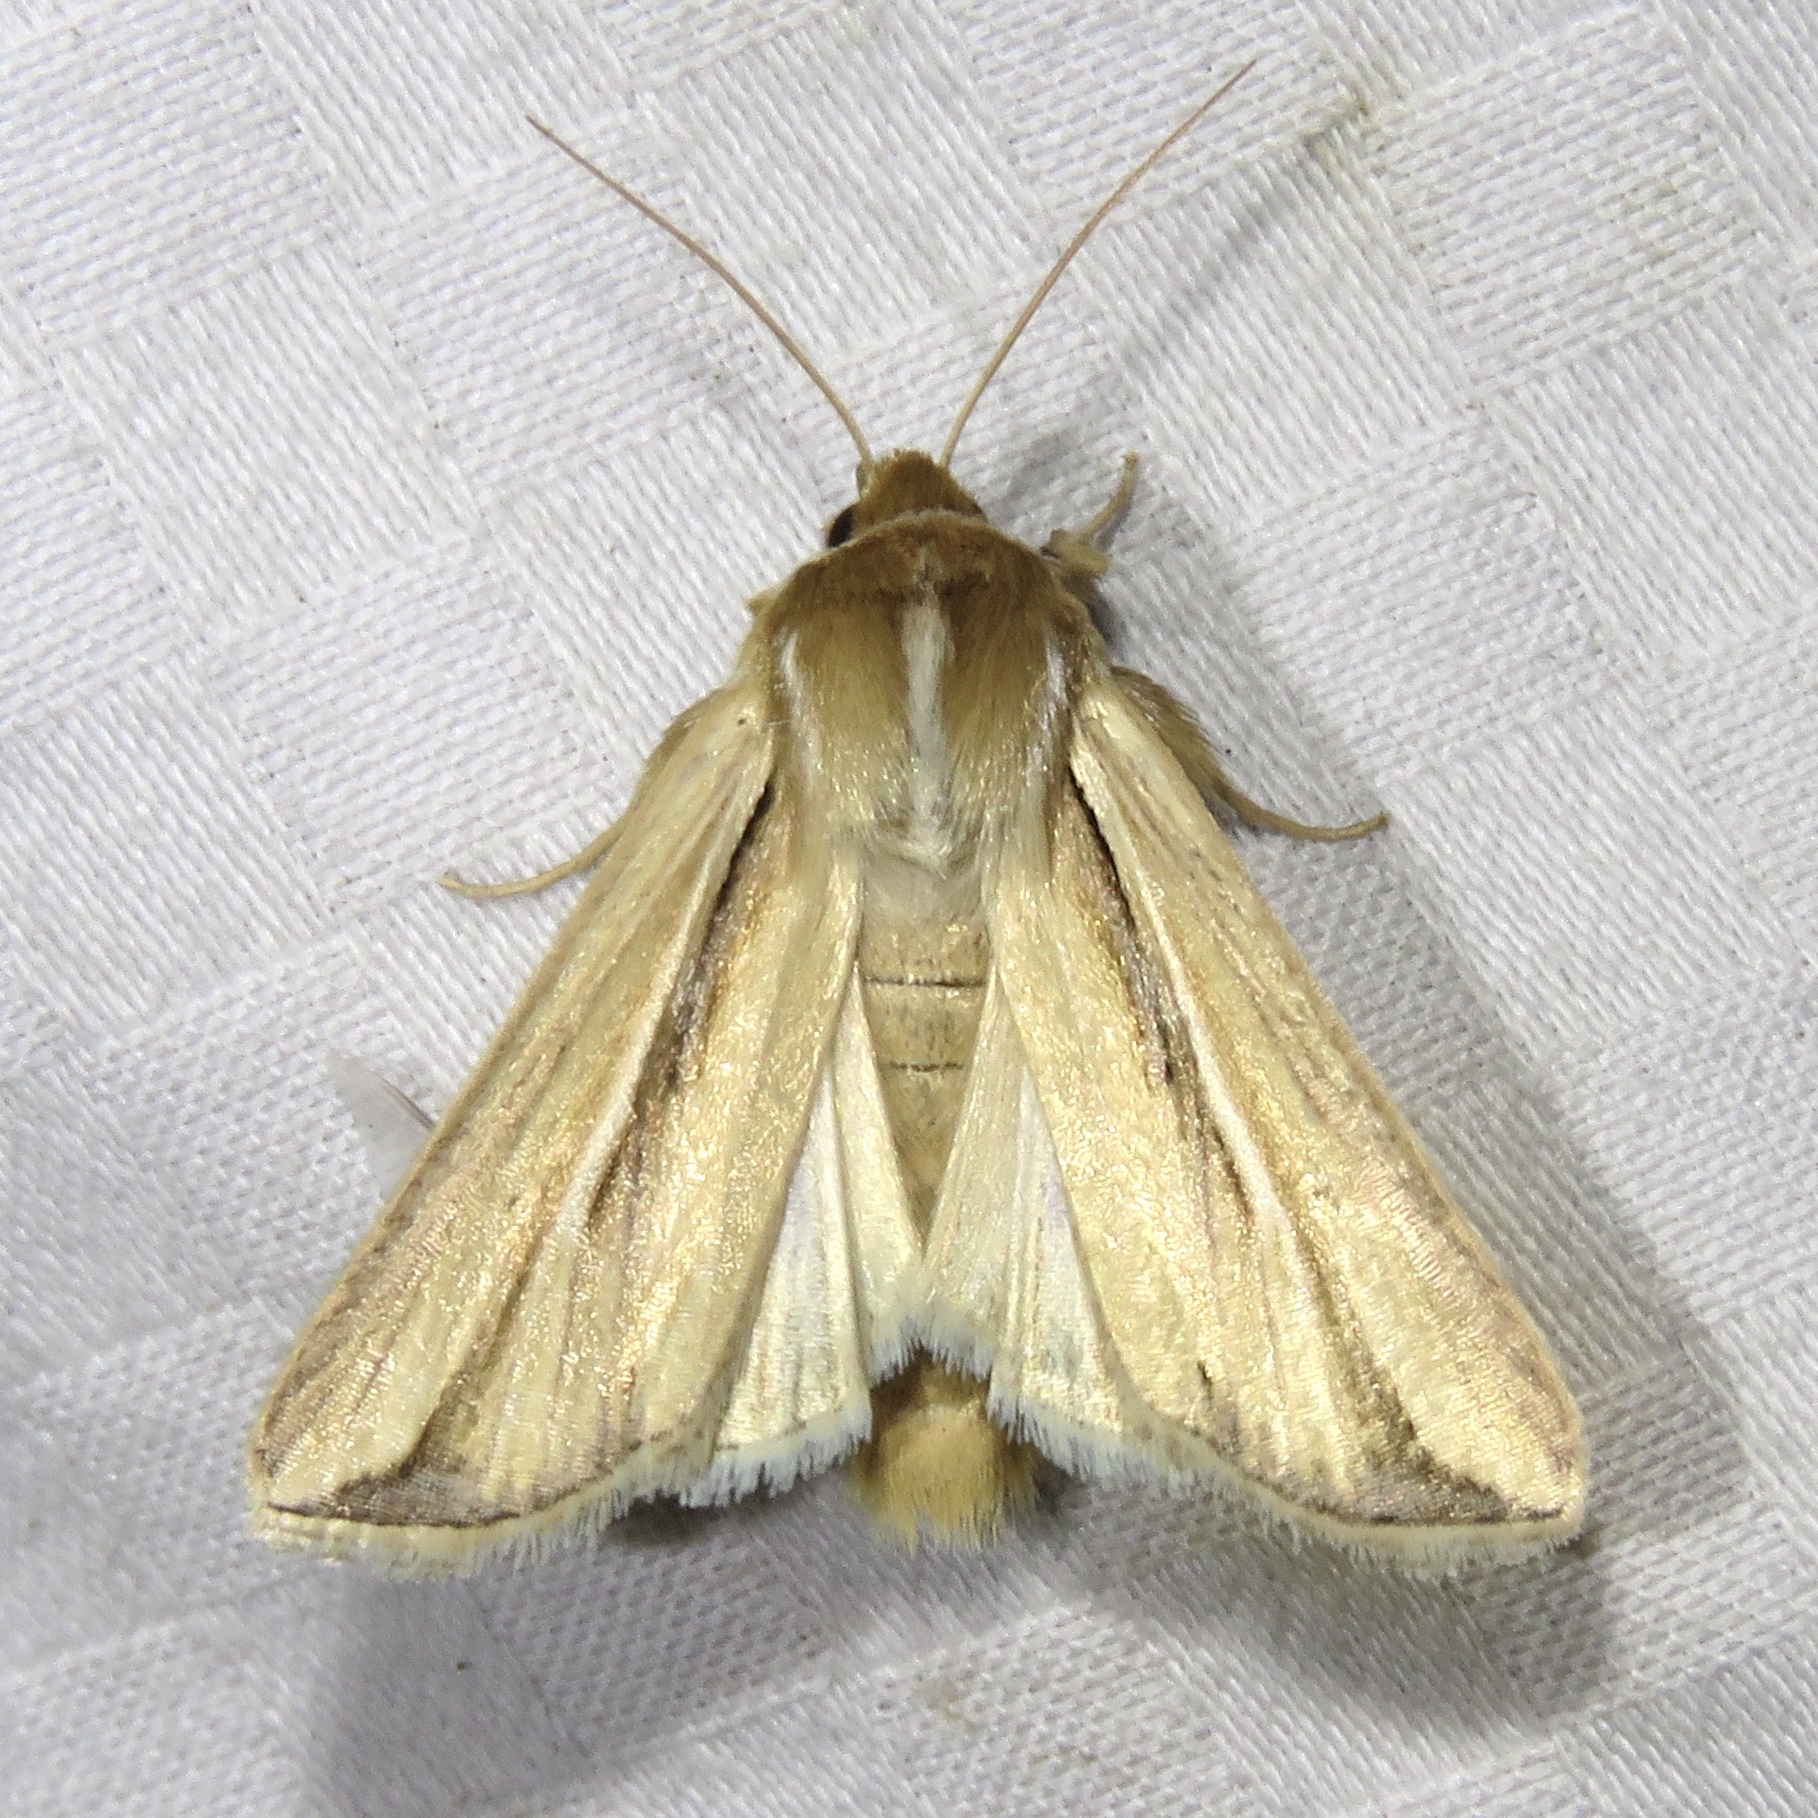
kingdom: Animalia
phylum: Arthropoda
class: Insecta
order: Lepidoptera
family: Noctuidae
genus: Dargida
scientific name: Dargida diffusa
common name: Wheat head armyworm
